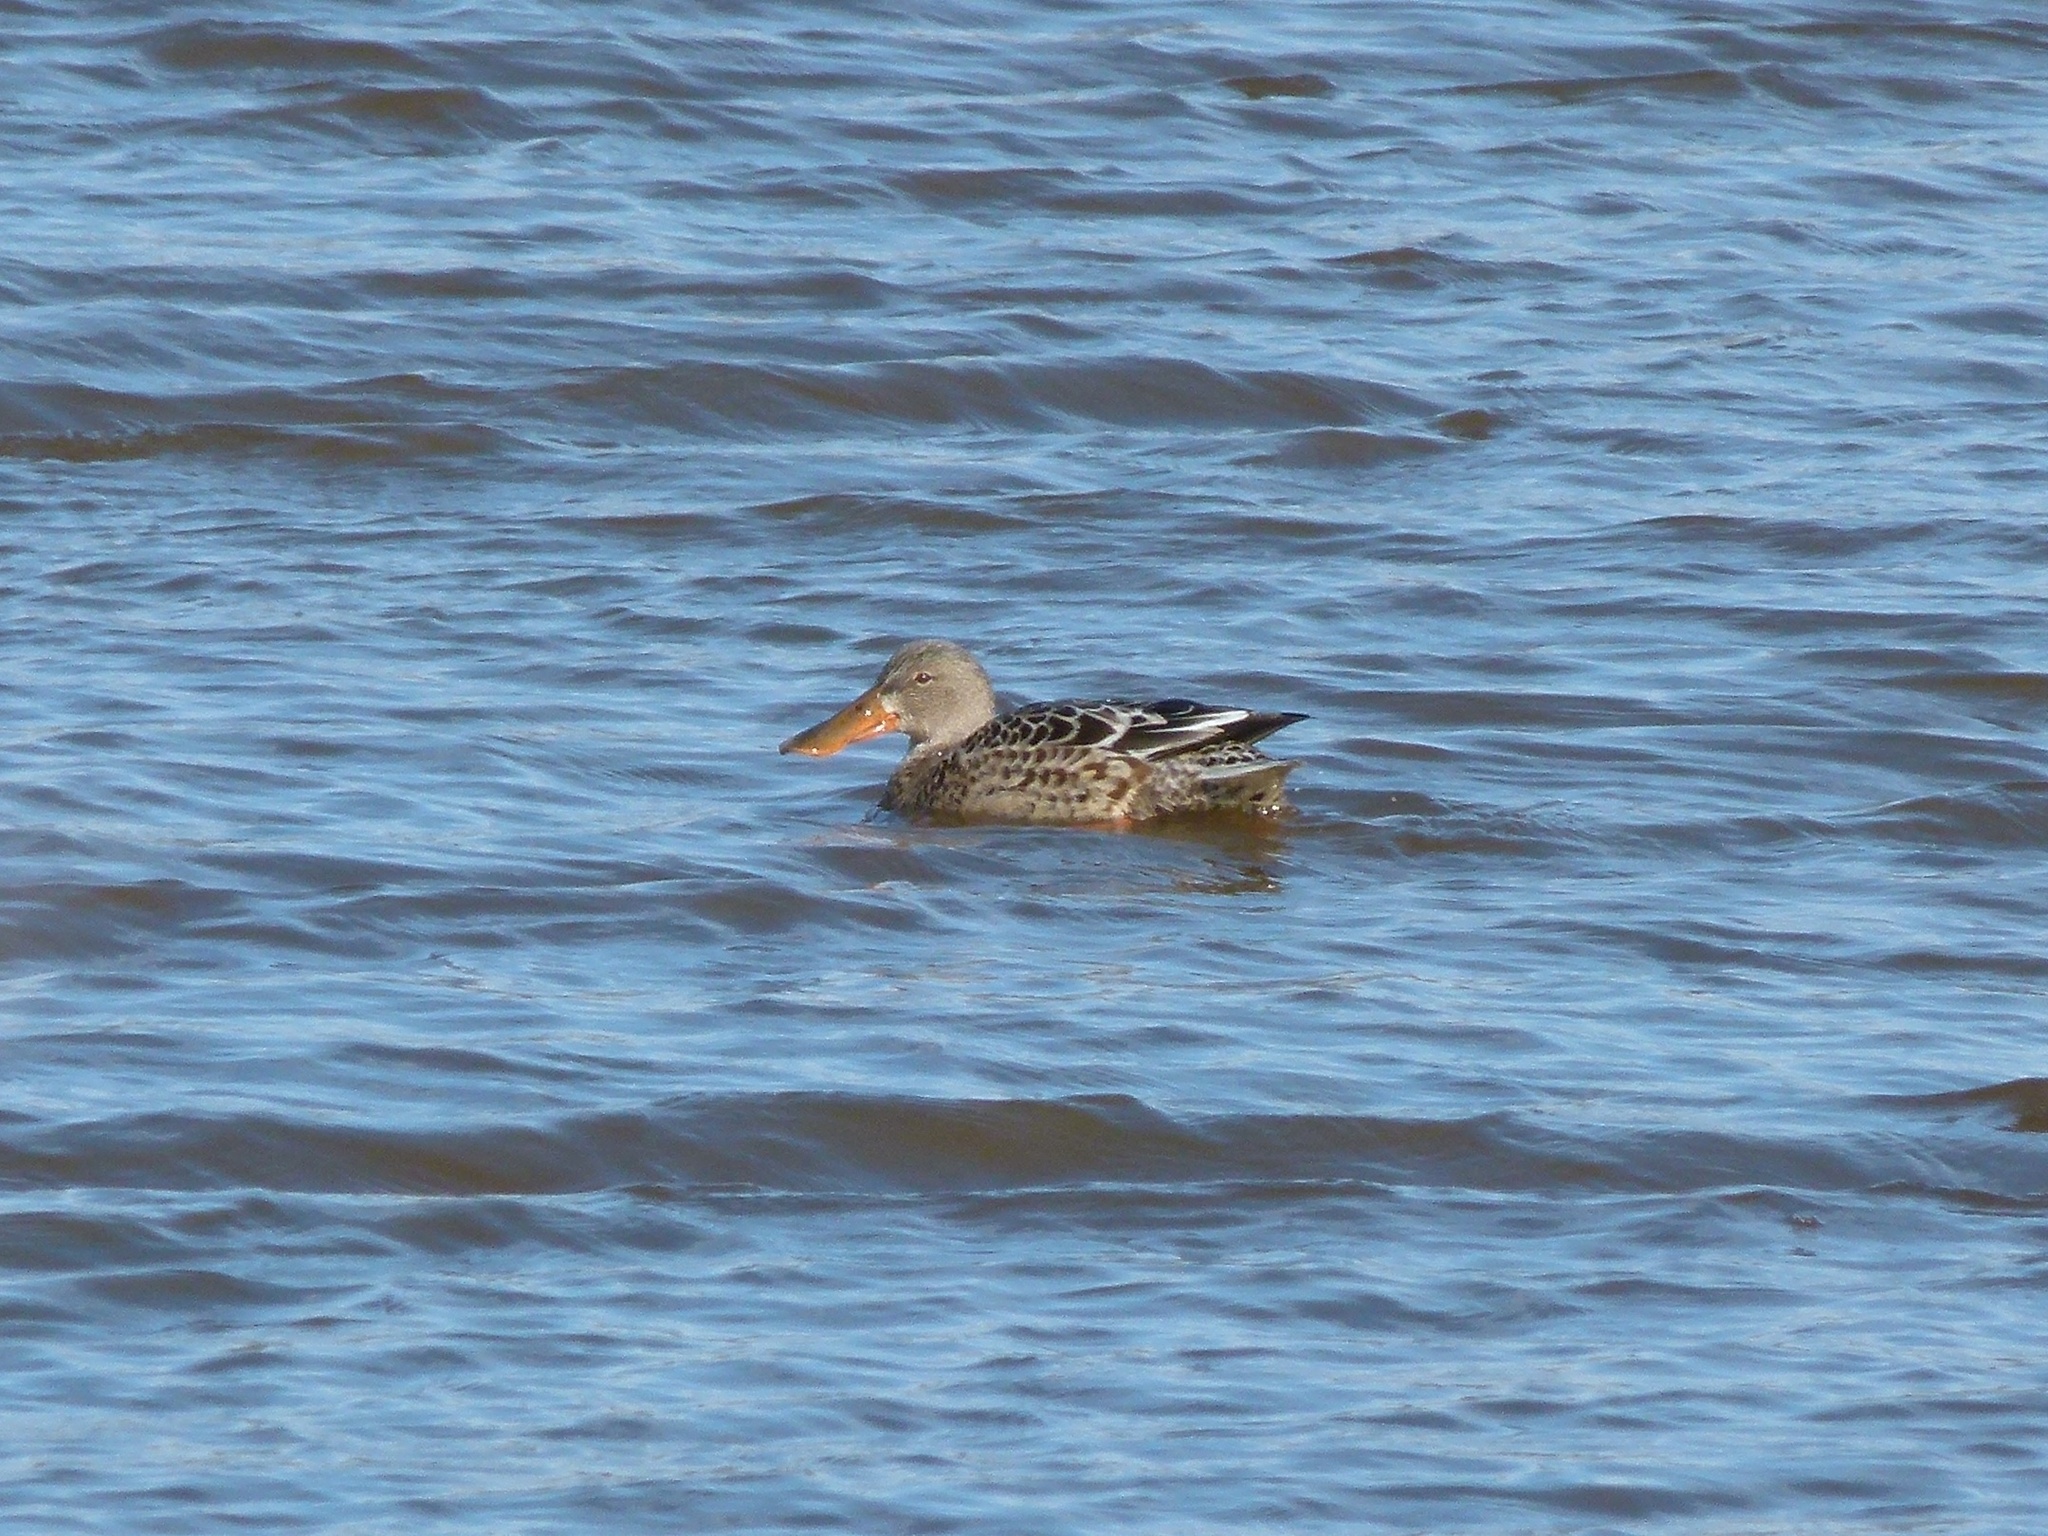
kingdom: Animalia
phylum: Chordata
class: Aves
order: Anseriformes
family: Anatidae
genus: Spatula
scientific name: Spatula clypeata
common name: Northern shoveler
